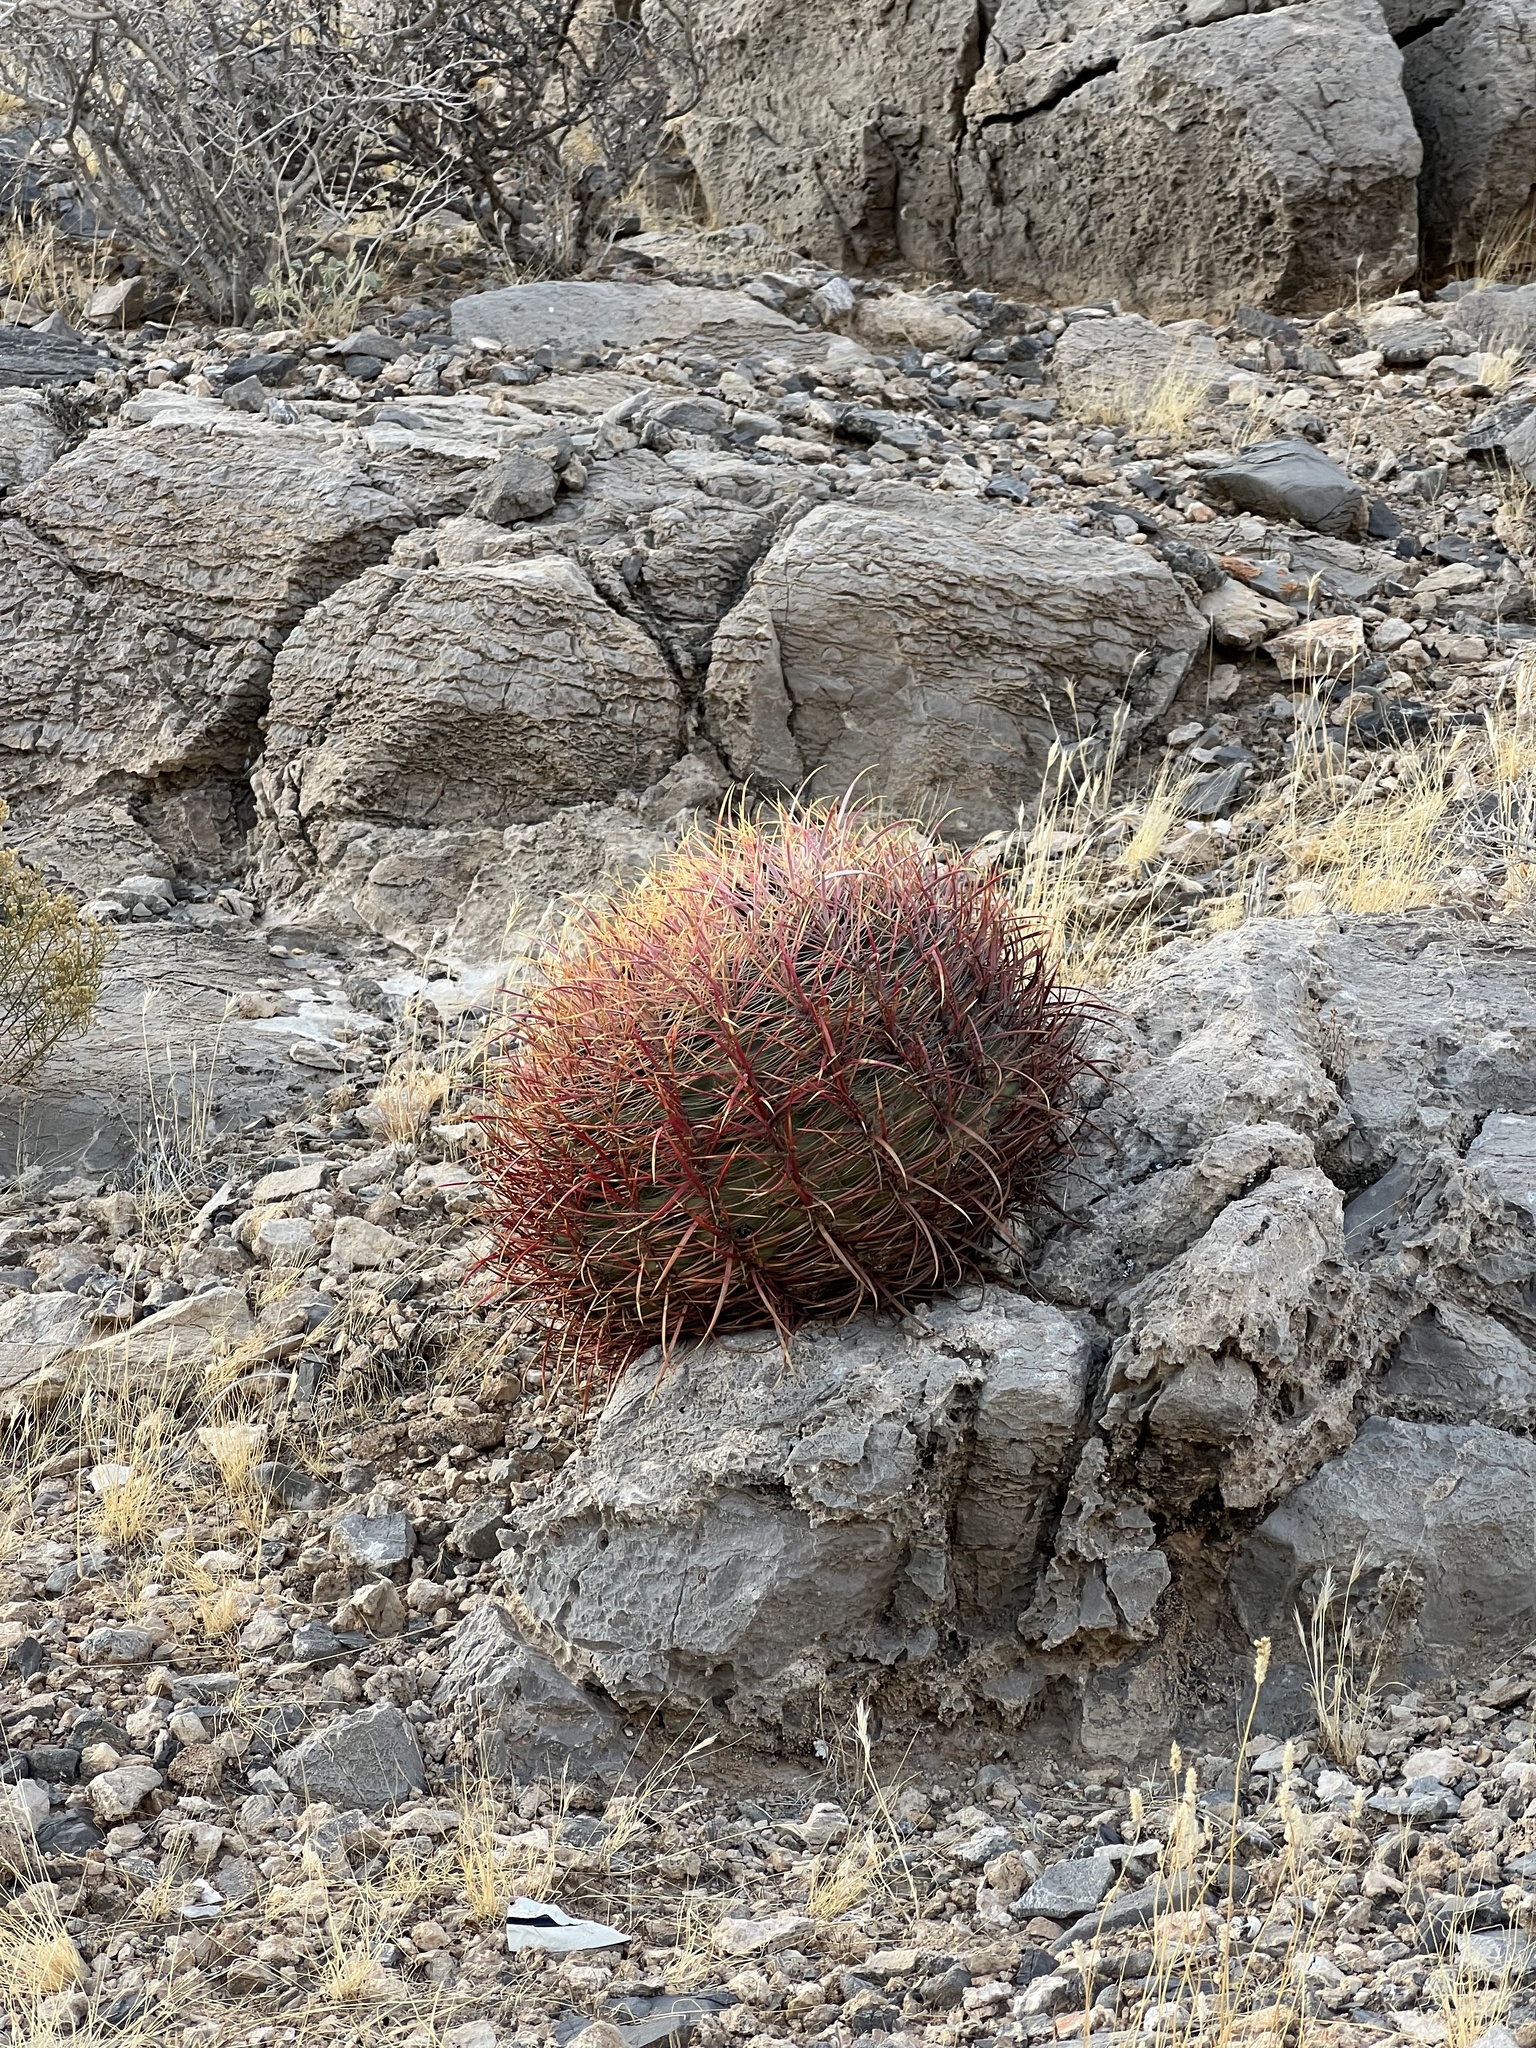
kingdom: Plantae
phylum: Tracheophyta
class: Magnoliopsida
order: Caryophyllales
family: Cactaceae
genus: Ferocactus
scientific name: Ferocactus cylindraceus
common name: California barrel cactus
